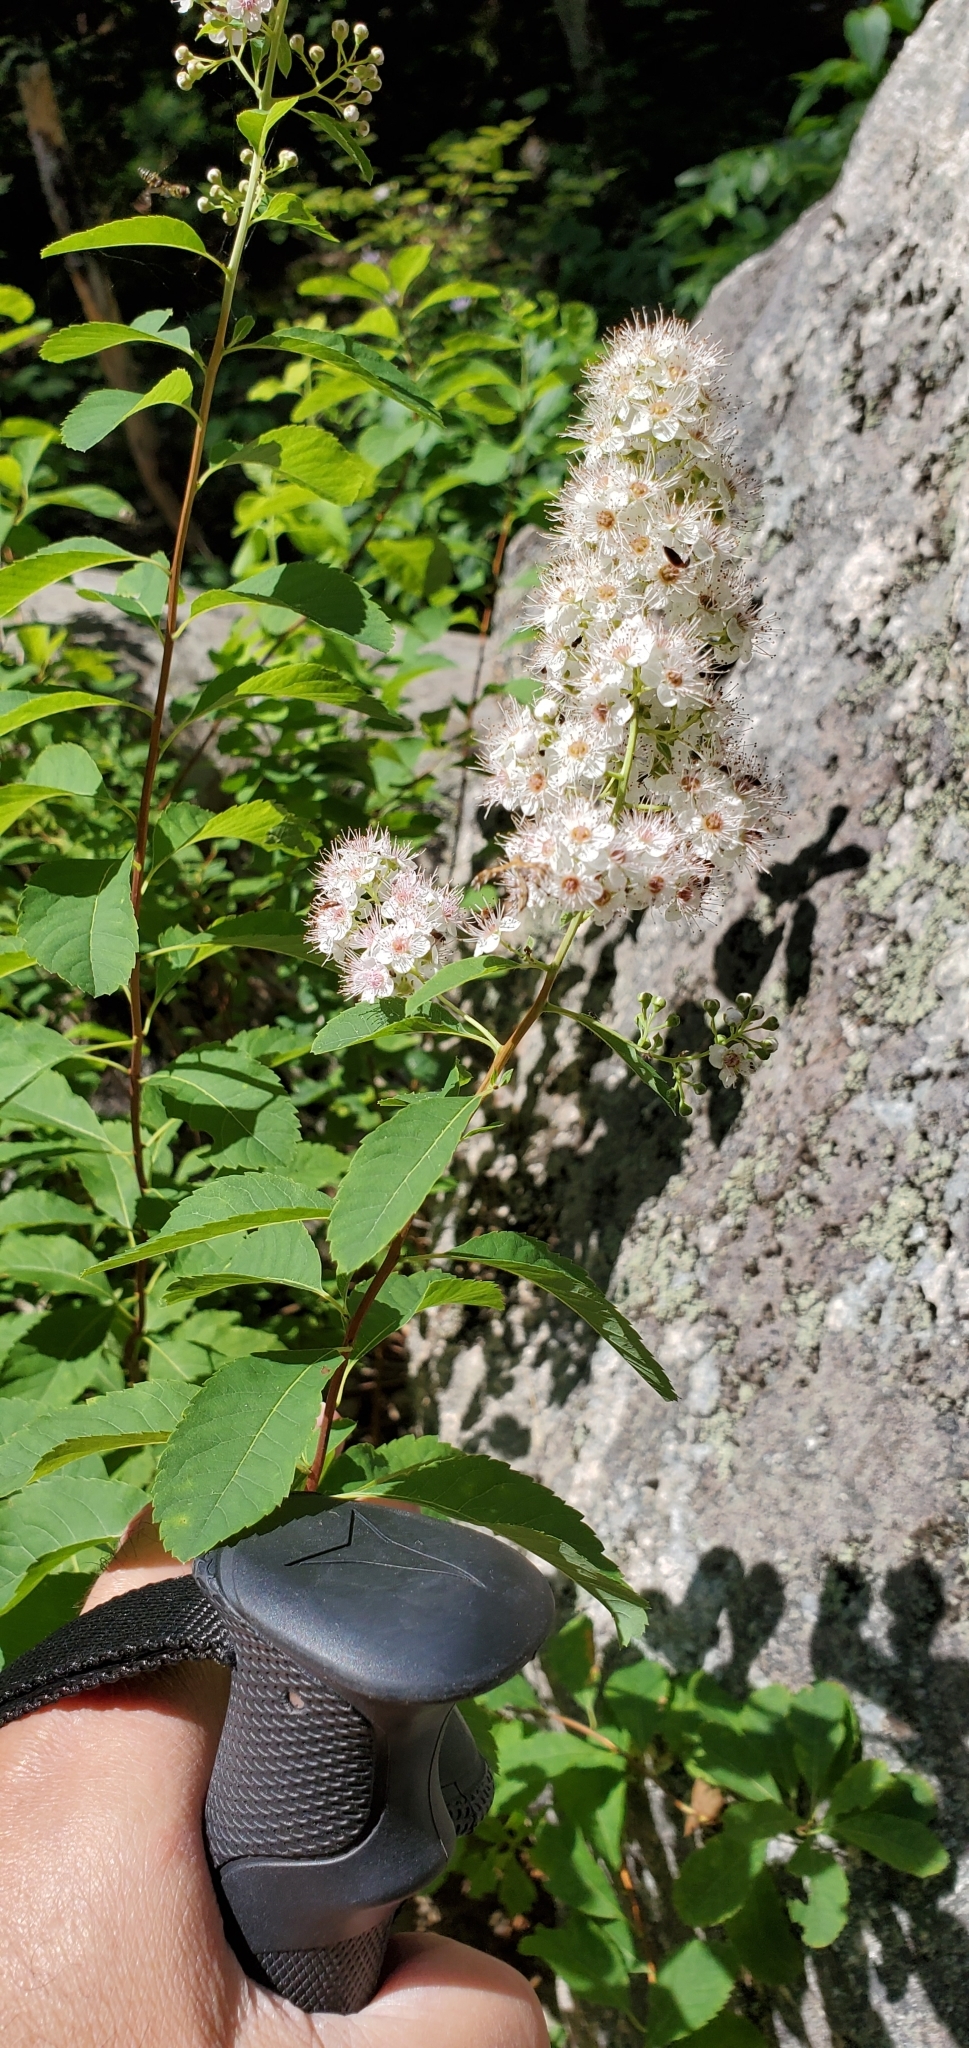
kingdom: Plantae
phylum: Tracheophyta
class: Magnoliopsida
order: Rosales
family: Rosaceae
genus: Spiraea
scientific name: Spiraea alba
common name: Pale bridewort
